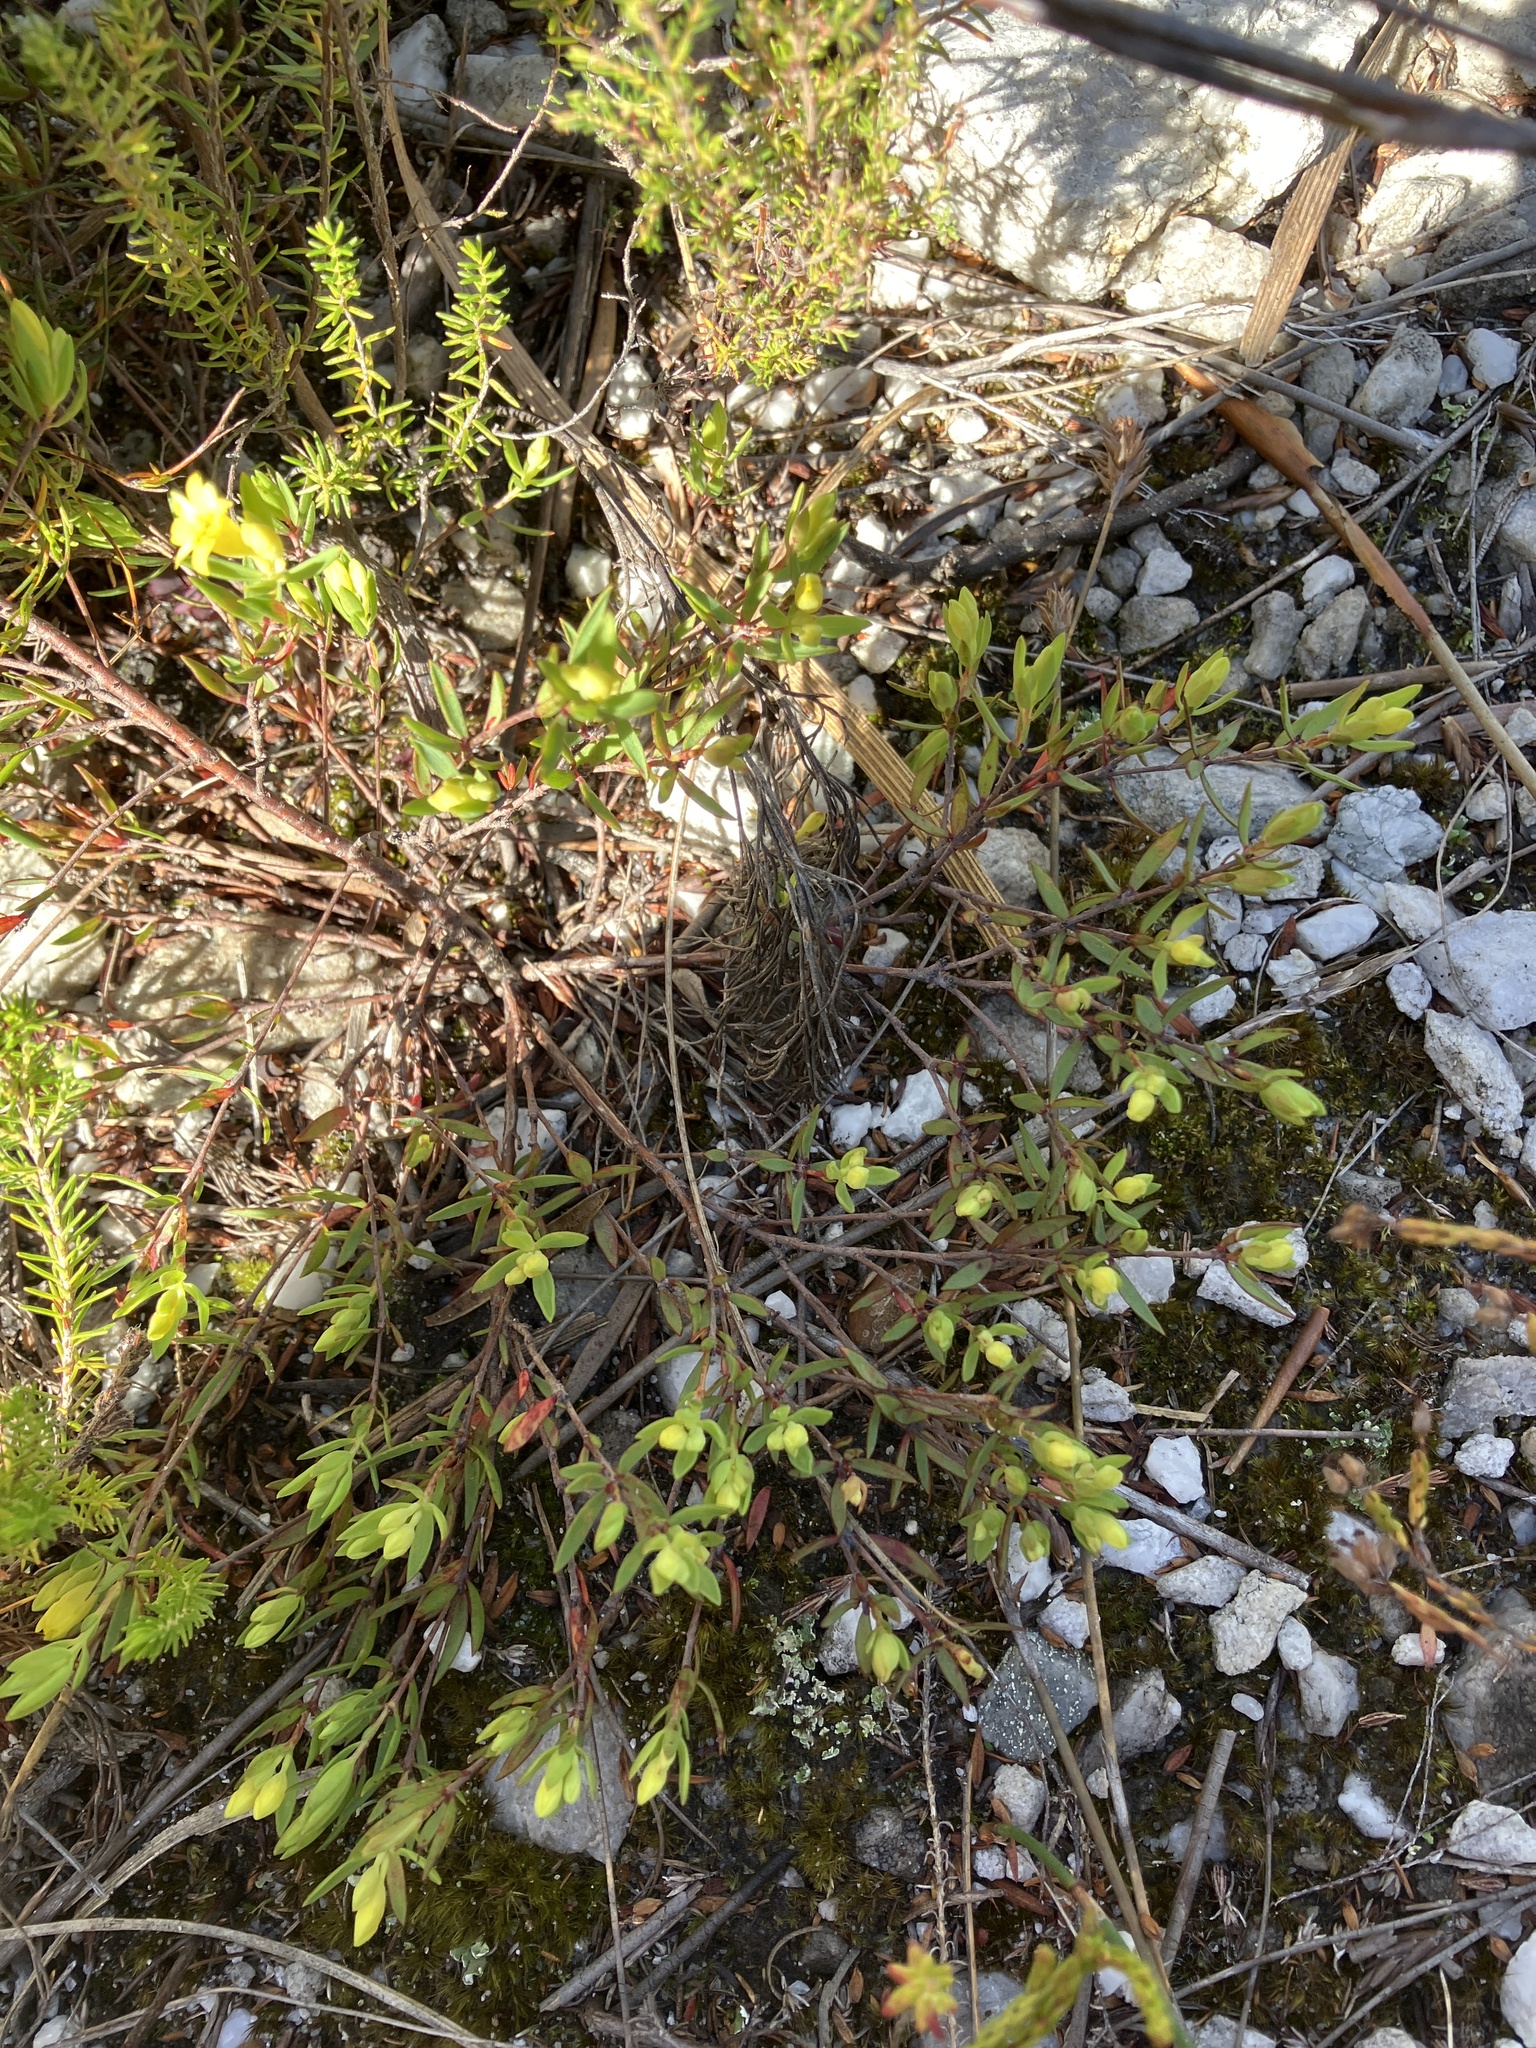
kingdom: Plantae
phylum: Tracheophyta
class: Magnoliopsida
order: Malvales
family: Thymelaeaceae
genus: Gnidia
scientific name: Gnidia juniperifolia
